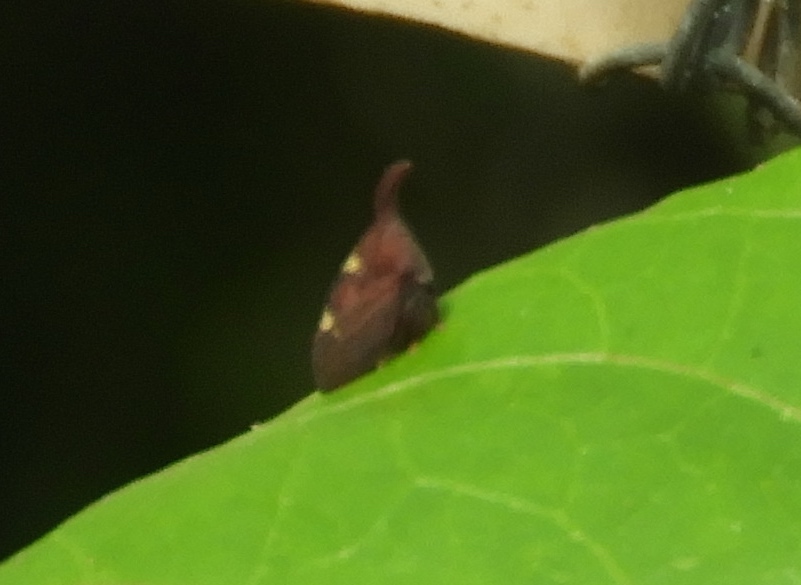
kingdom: Animalia
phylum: Arthropoda
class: Insecta
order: Hemiptera
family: Membracidae
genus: Enchenopa
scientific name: Enchenopa
